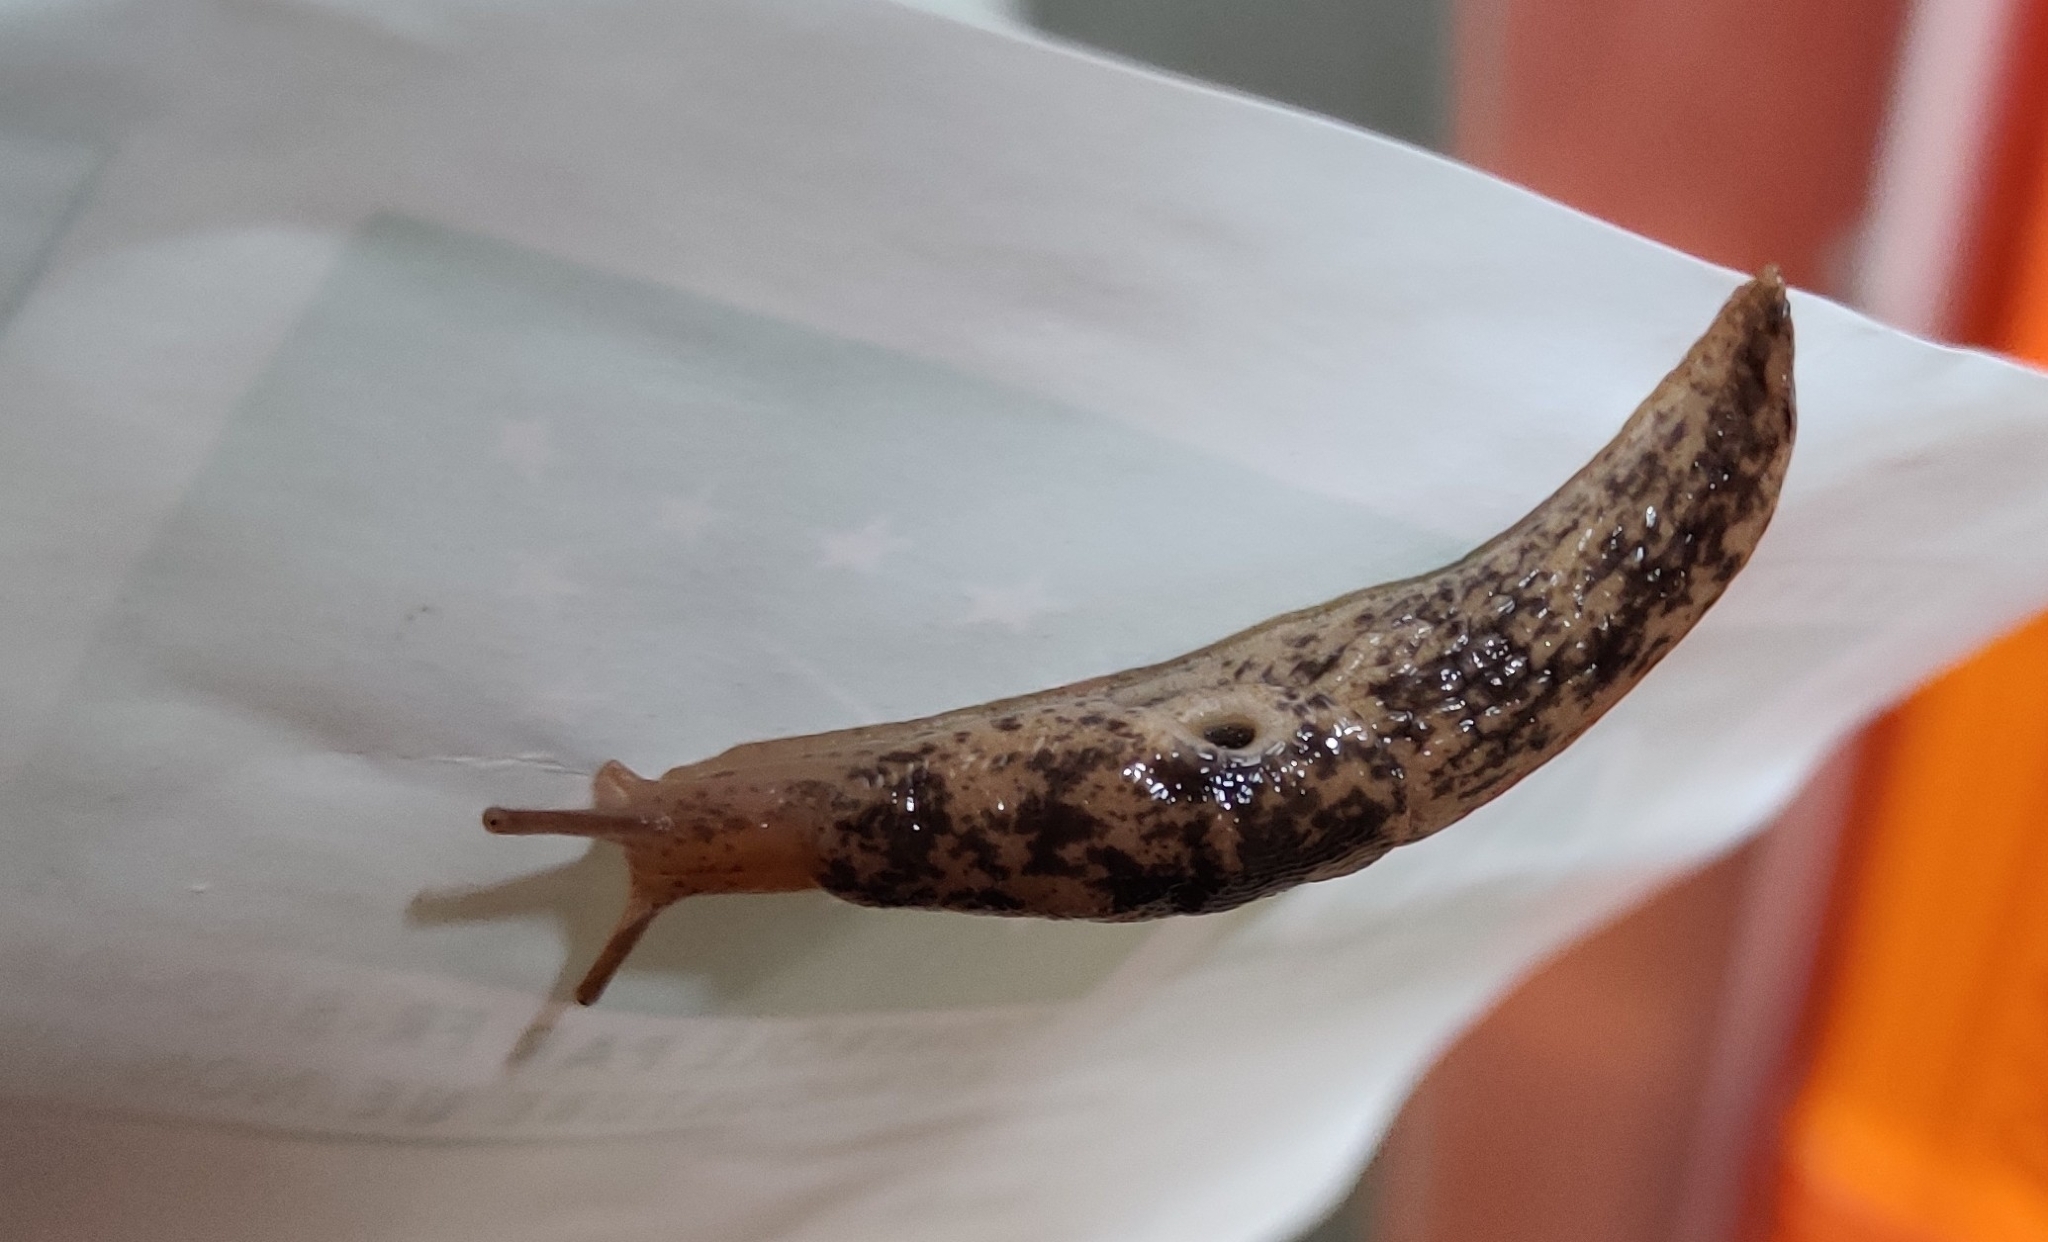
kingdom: Animalia
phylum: Mollusca
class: Gastropoda
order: Stylommatophora
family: Agriolimacidae
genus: Deroceras
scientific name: Deroceras reticulatum
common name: Gray field slug
